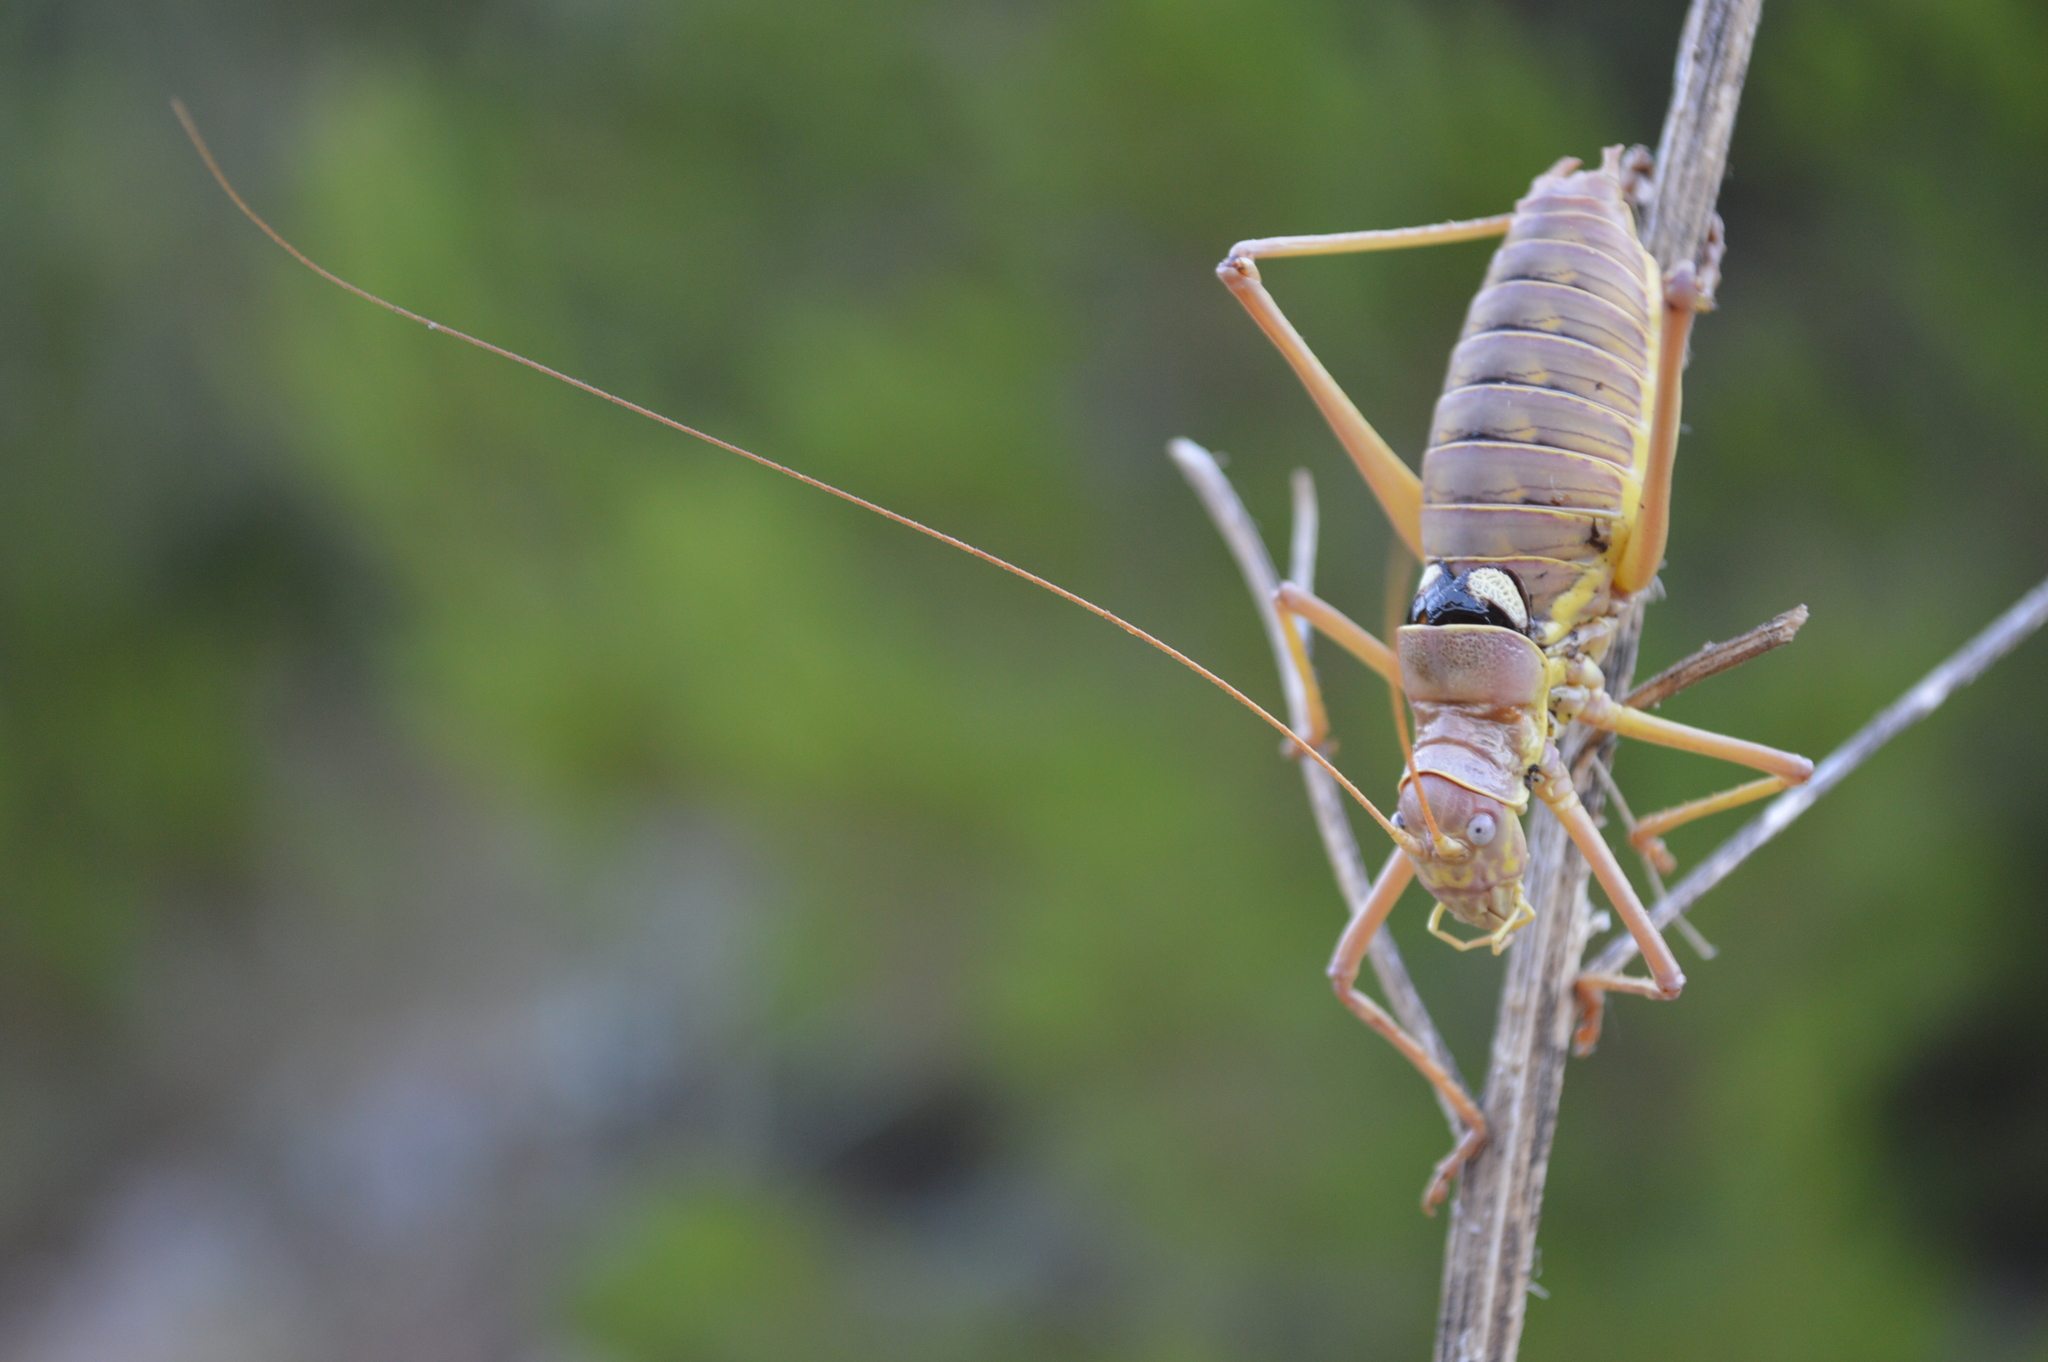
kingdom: Animalia
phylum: Arthropoda
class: Insecta
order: Orthoptera
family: Tettigoniidae
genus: Dinarippiger
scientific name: Dinarippiger discoidalis
